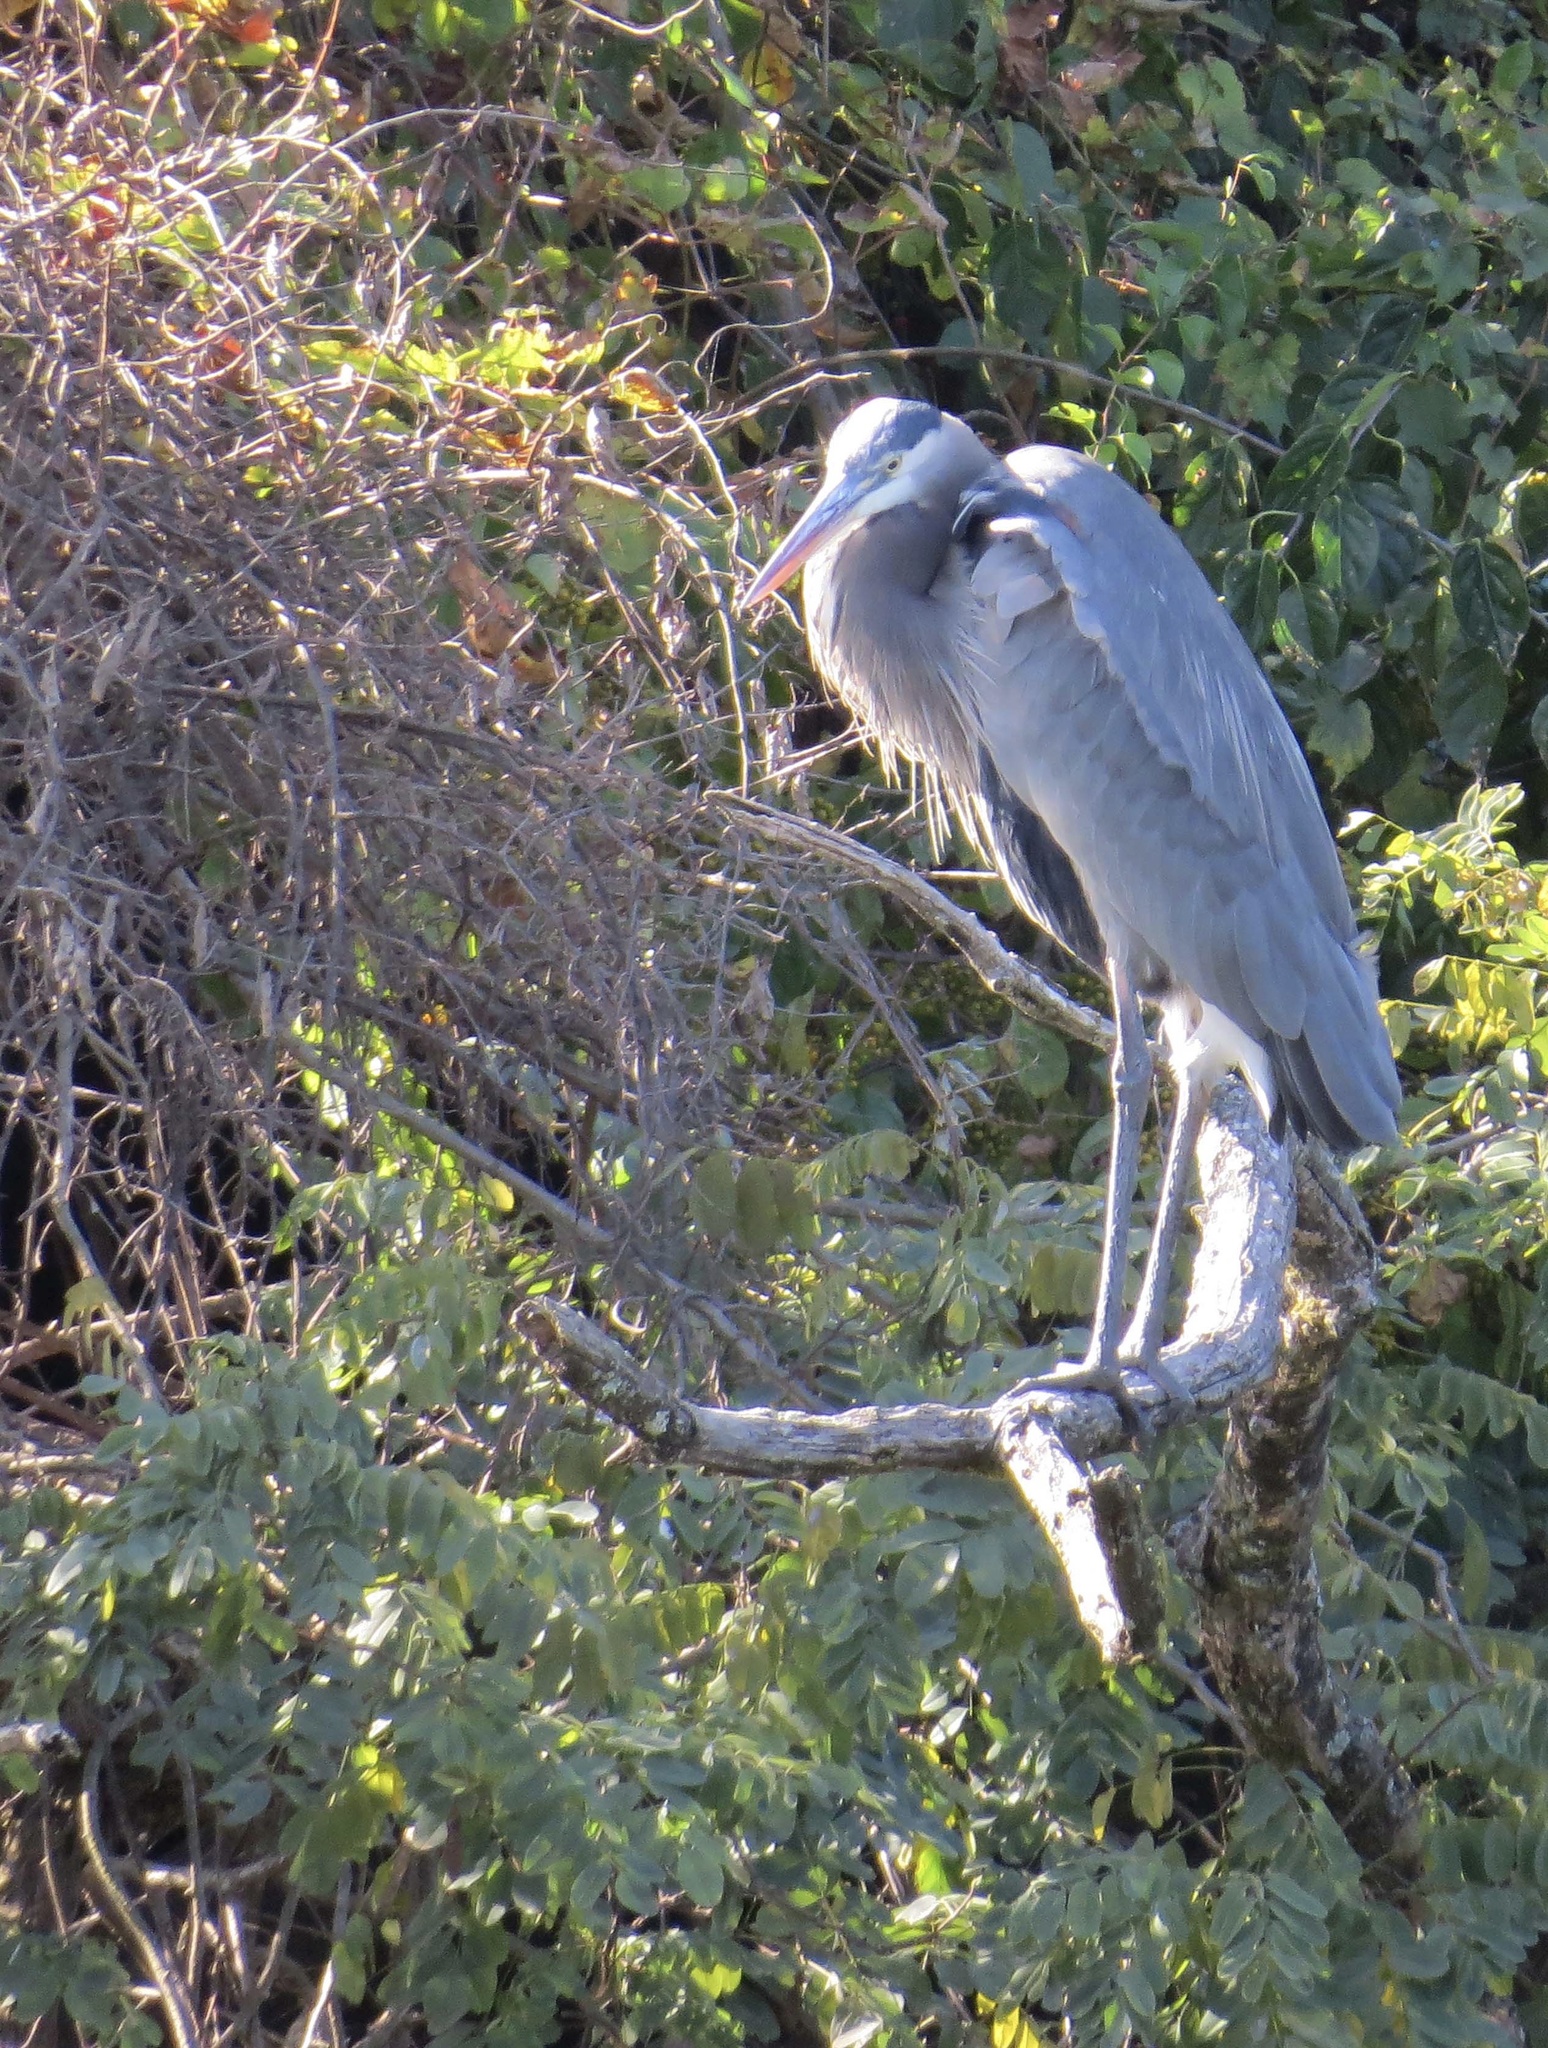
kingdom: Animalia
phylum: Chordata
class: Aves
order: Pelecaniformes
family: Ardeidae
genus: Ardea
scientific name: Ardea herodias
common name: Great blue heron
